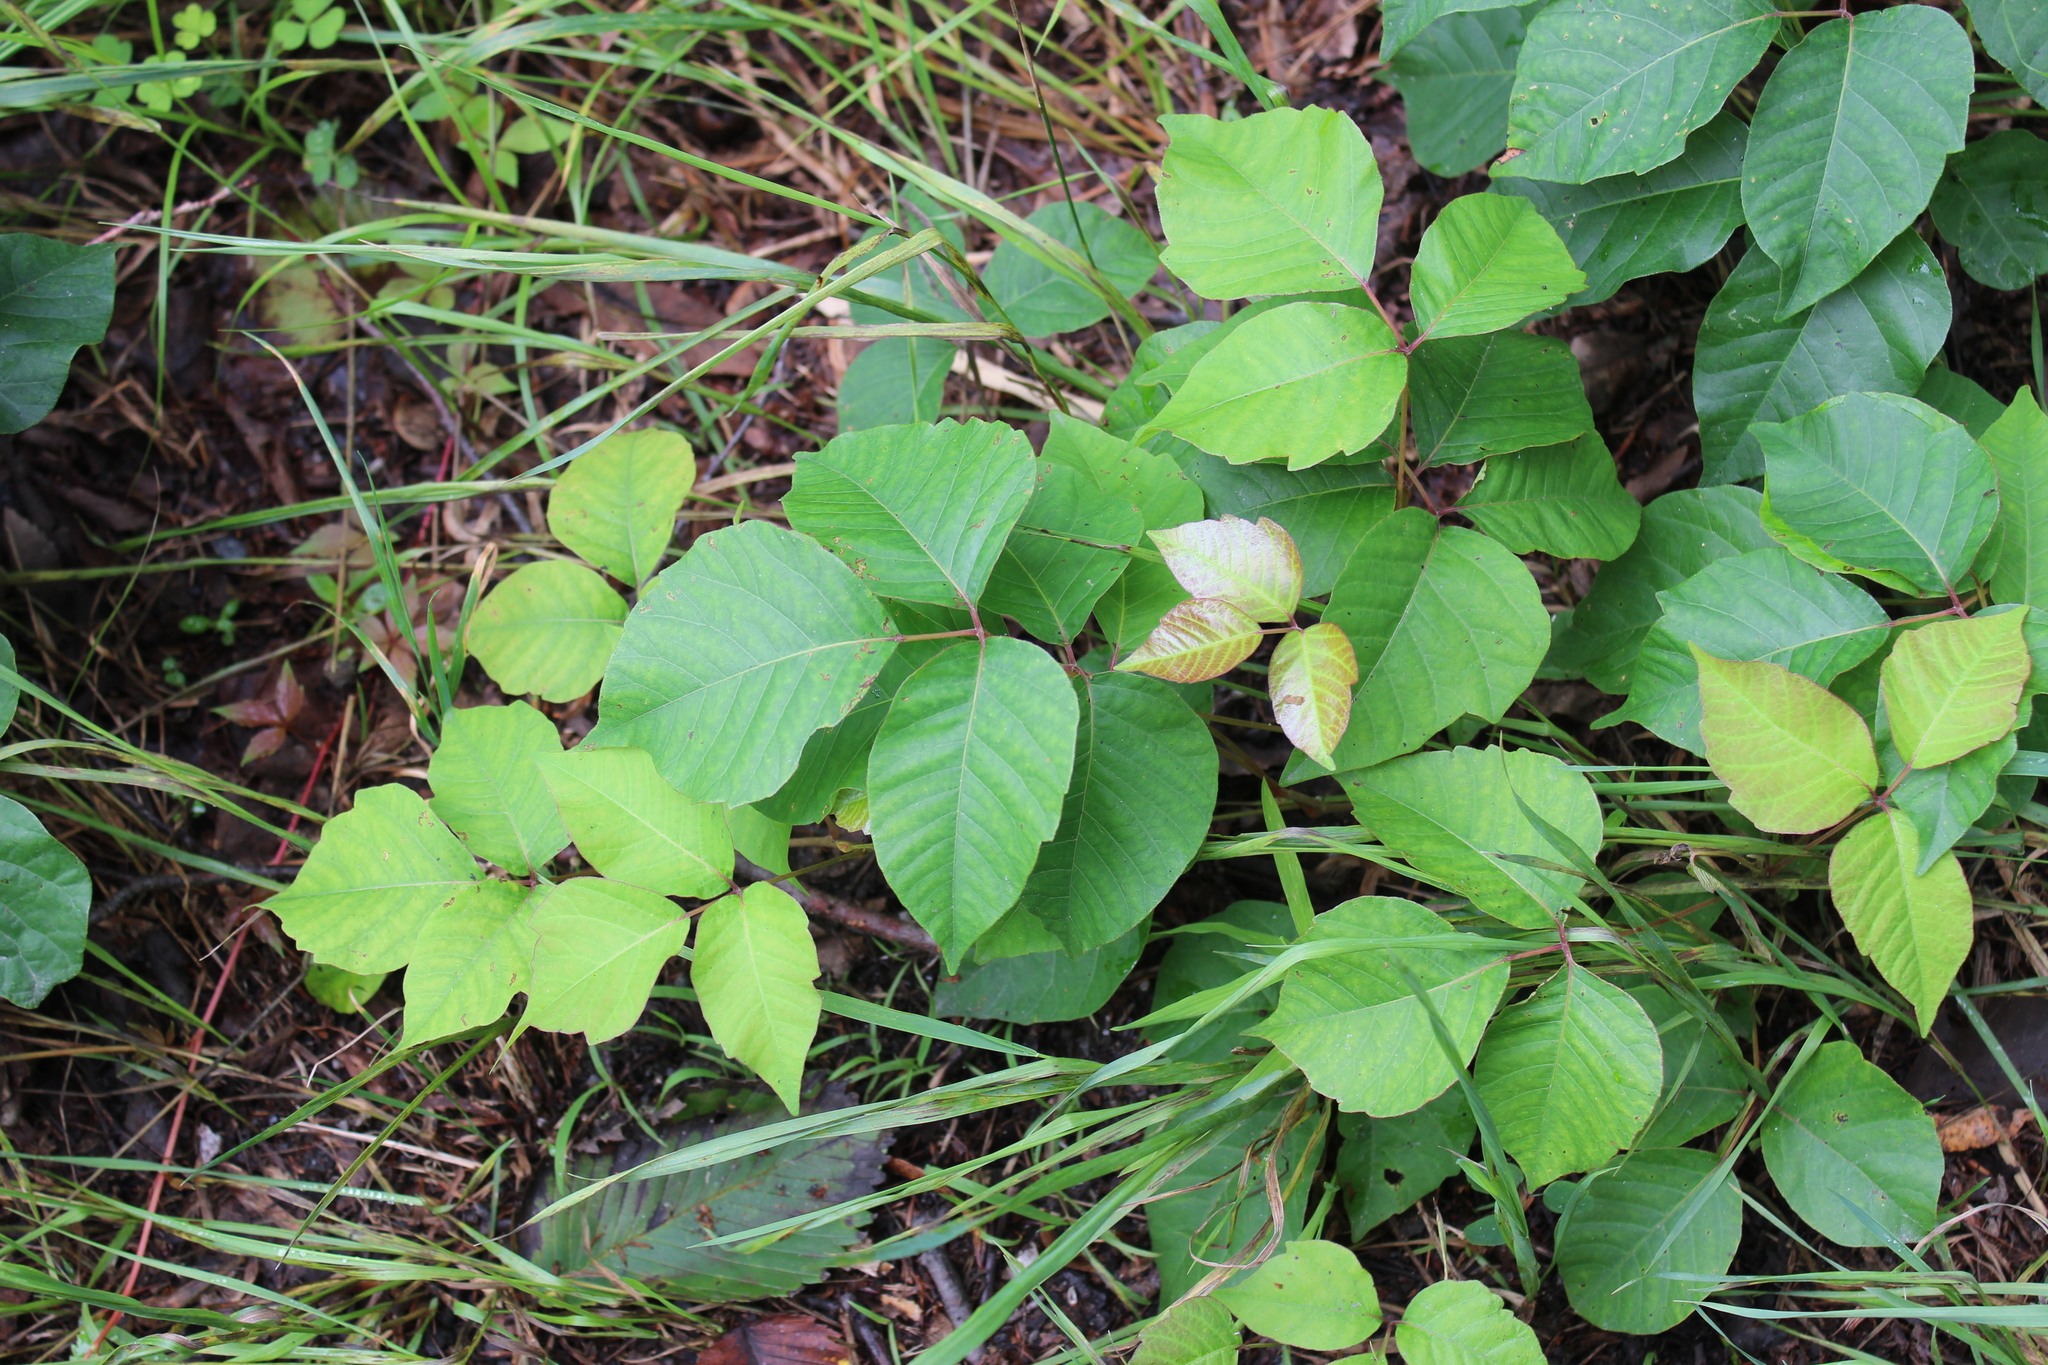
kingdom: Plantae
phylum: Tracheophyta
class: Magnoliopsida
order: Sapindales
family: Anacardiaceae
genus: Toxicodendron
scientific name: Toxicodendron radicans
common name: Poison ivy
